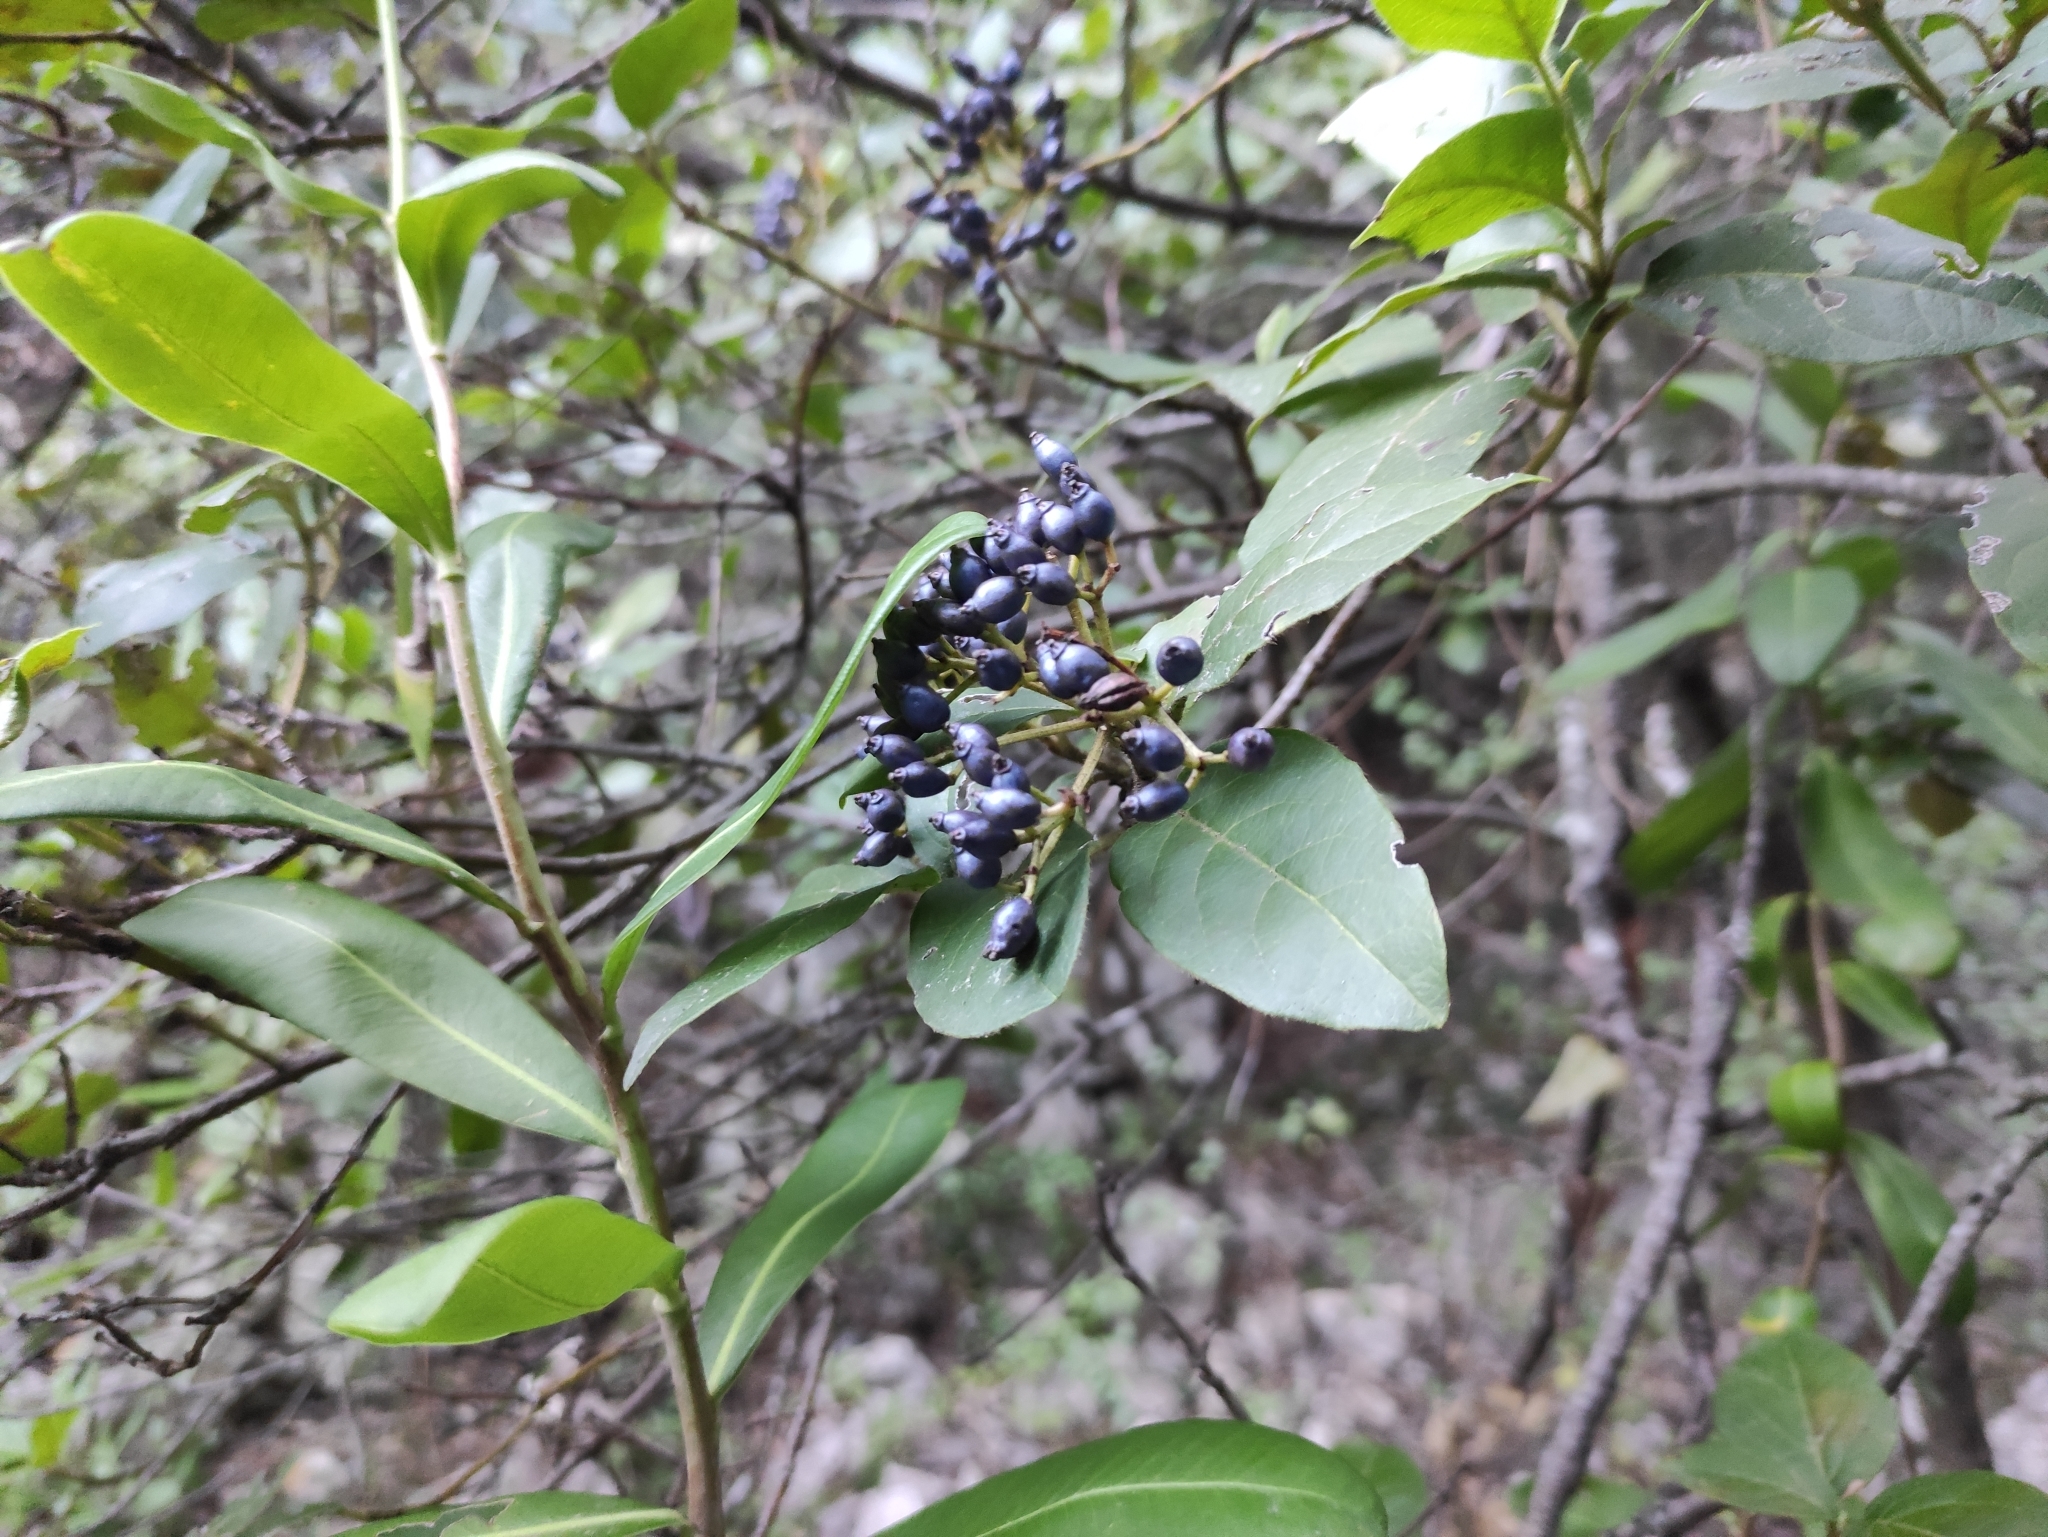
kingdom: Plantae
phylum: Tracheophyta
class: Magnoliopsida
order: Dipsacales
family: Viburnaceae
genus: Viburnum
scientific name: Viburnum tinus
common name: Laurustinus
